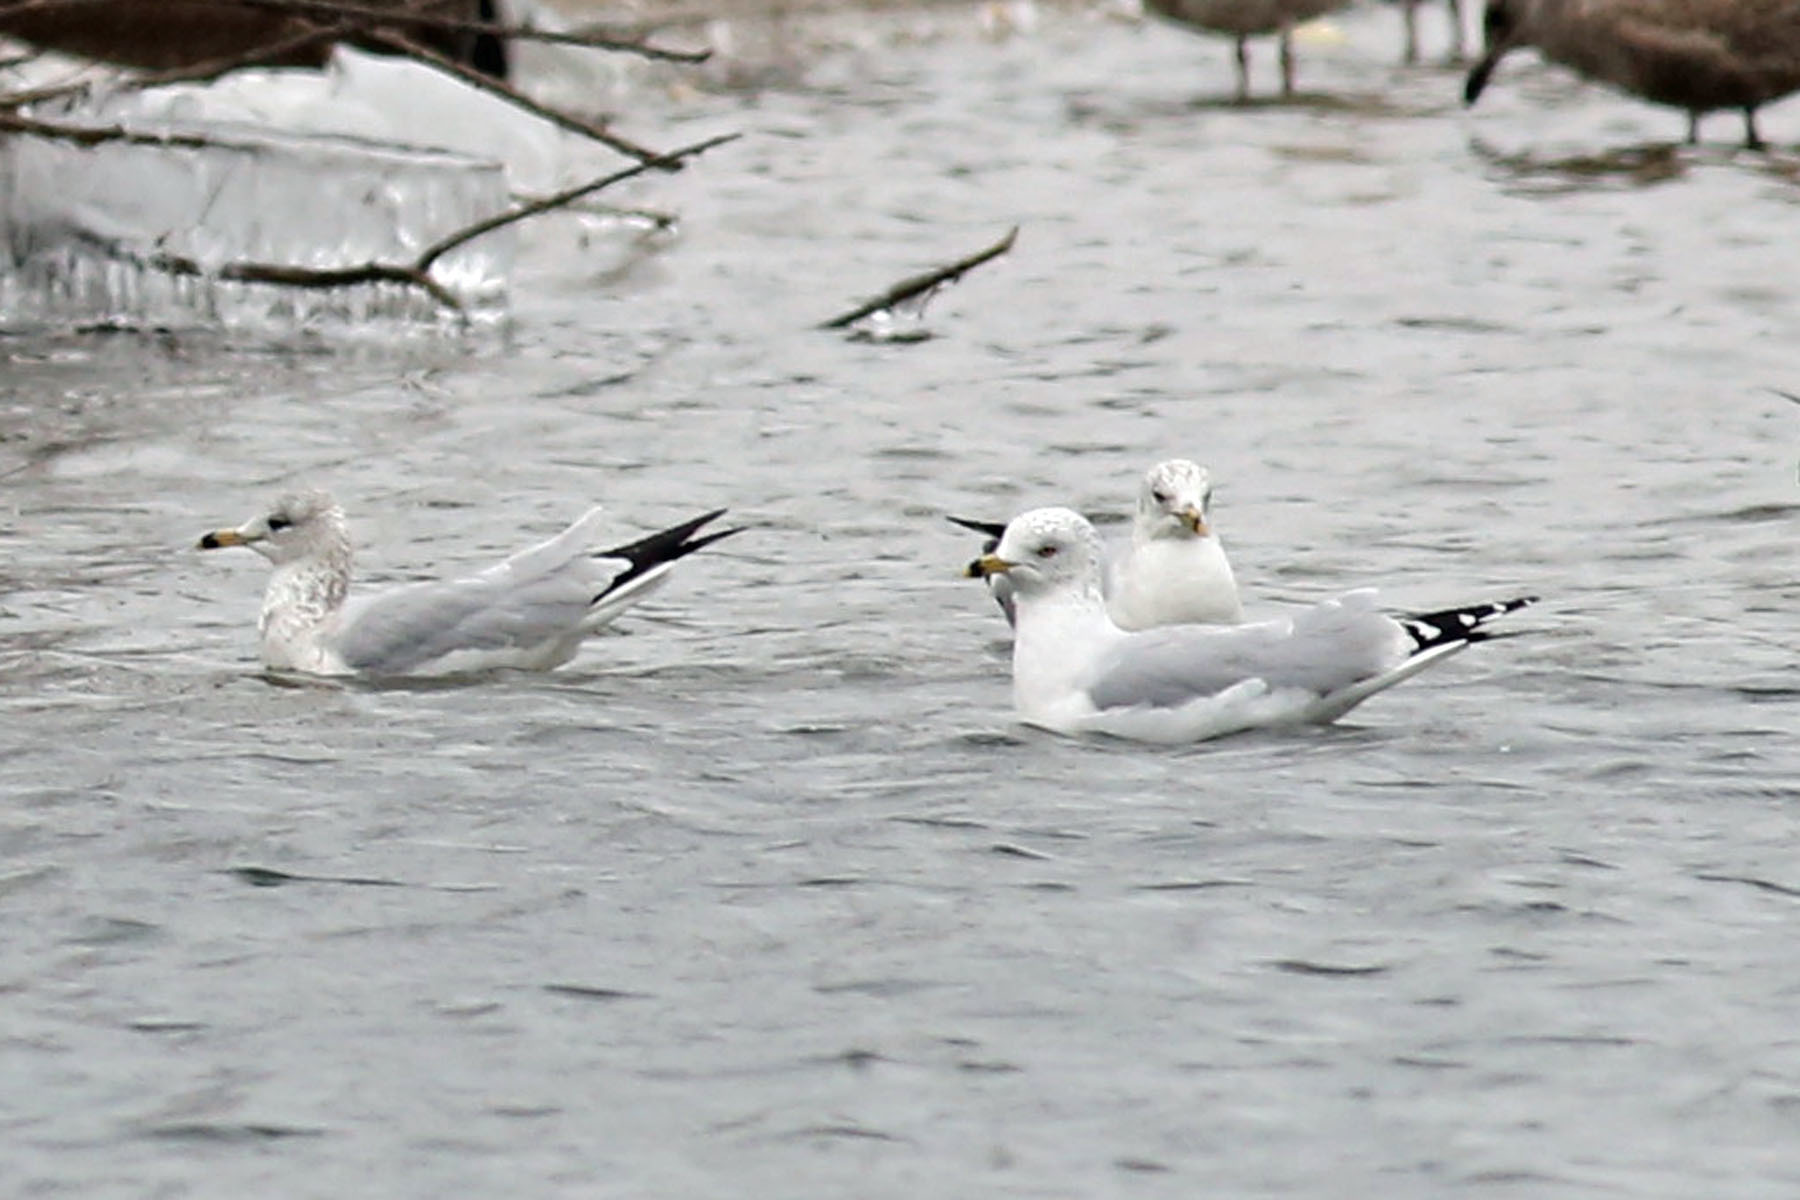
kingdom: Animalia
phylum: Chordata
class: Aves
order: Charadriiformes
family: Laridae
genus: Larus
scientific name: Larus delawarensis
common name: Ring-billed gull
